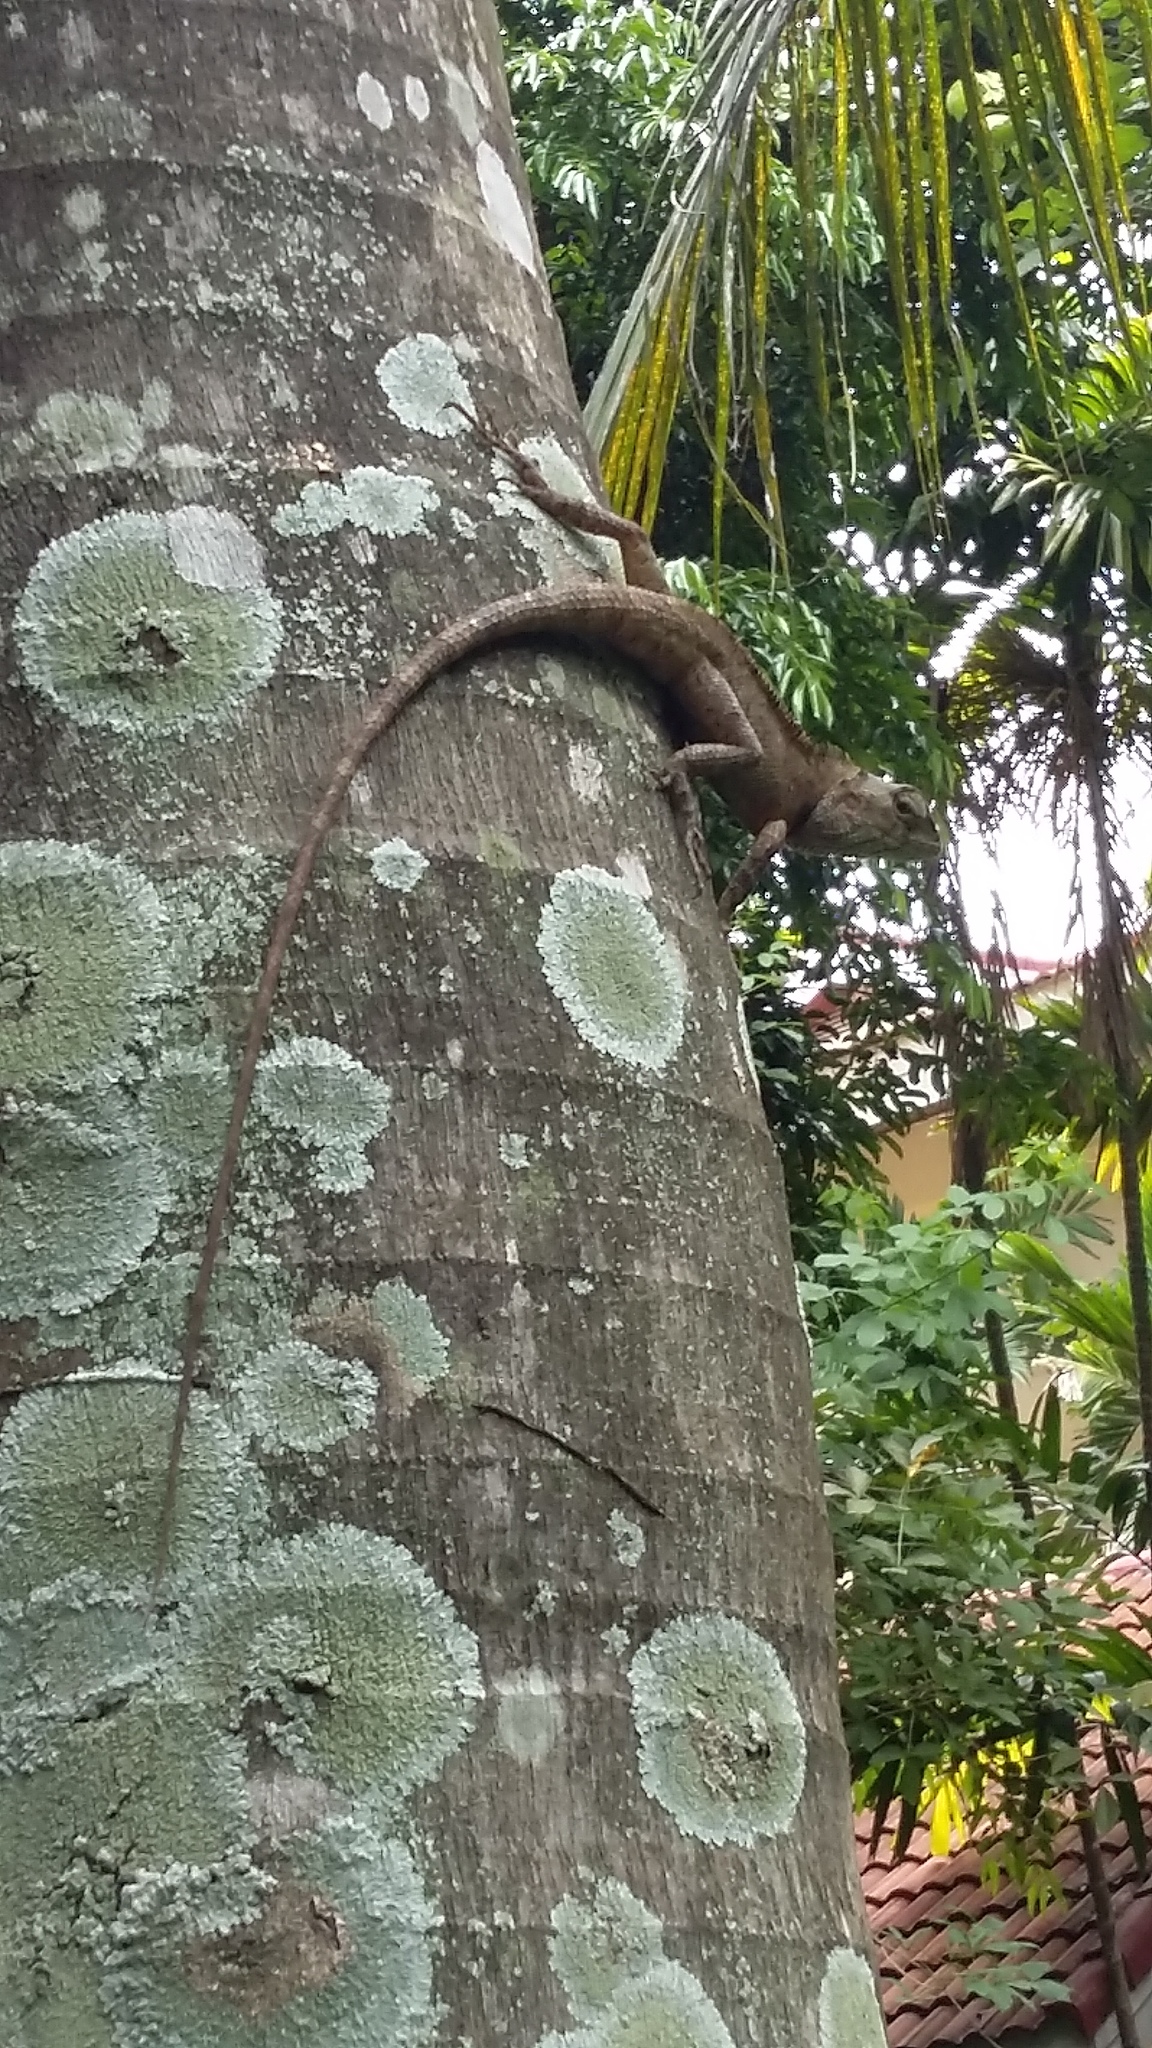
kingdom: Animalia
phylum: Chordata
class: Squamata
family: Agamidae
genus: Calotes
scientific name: Calotes versicolor
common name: Oriental garden lizard
